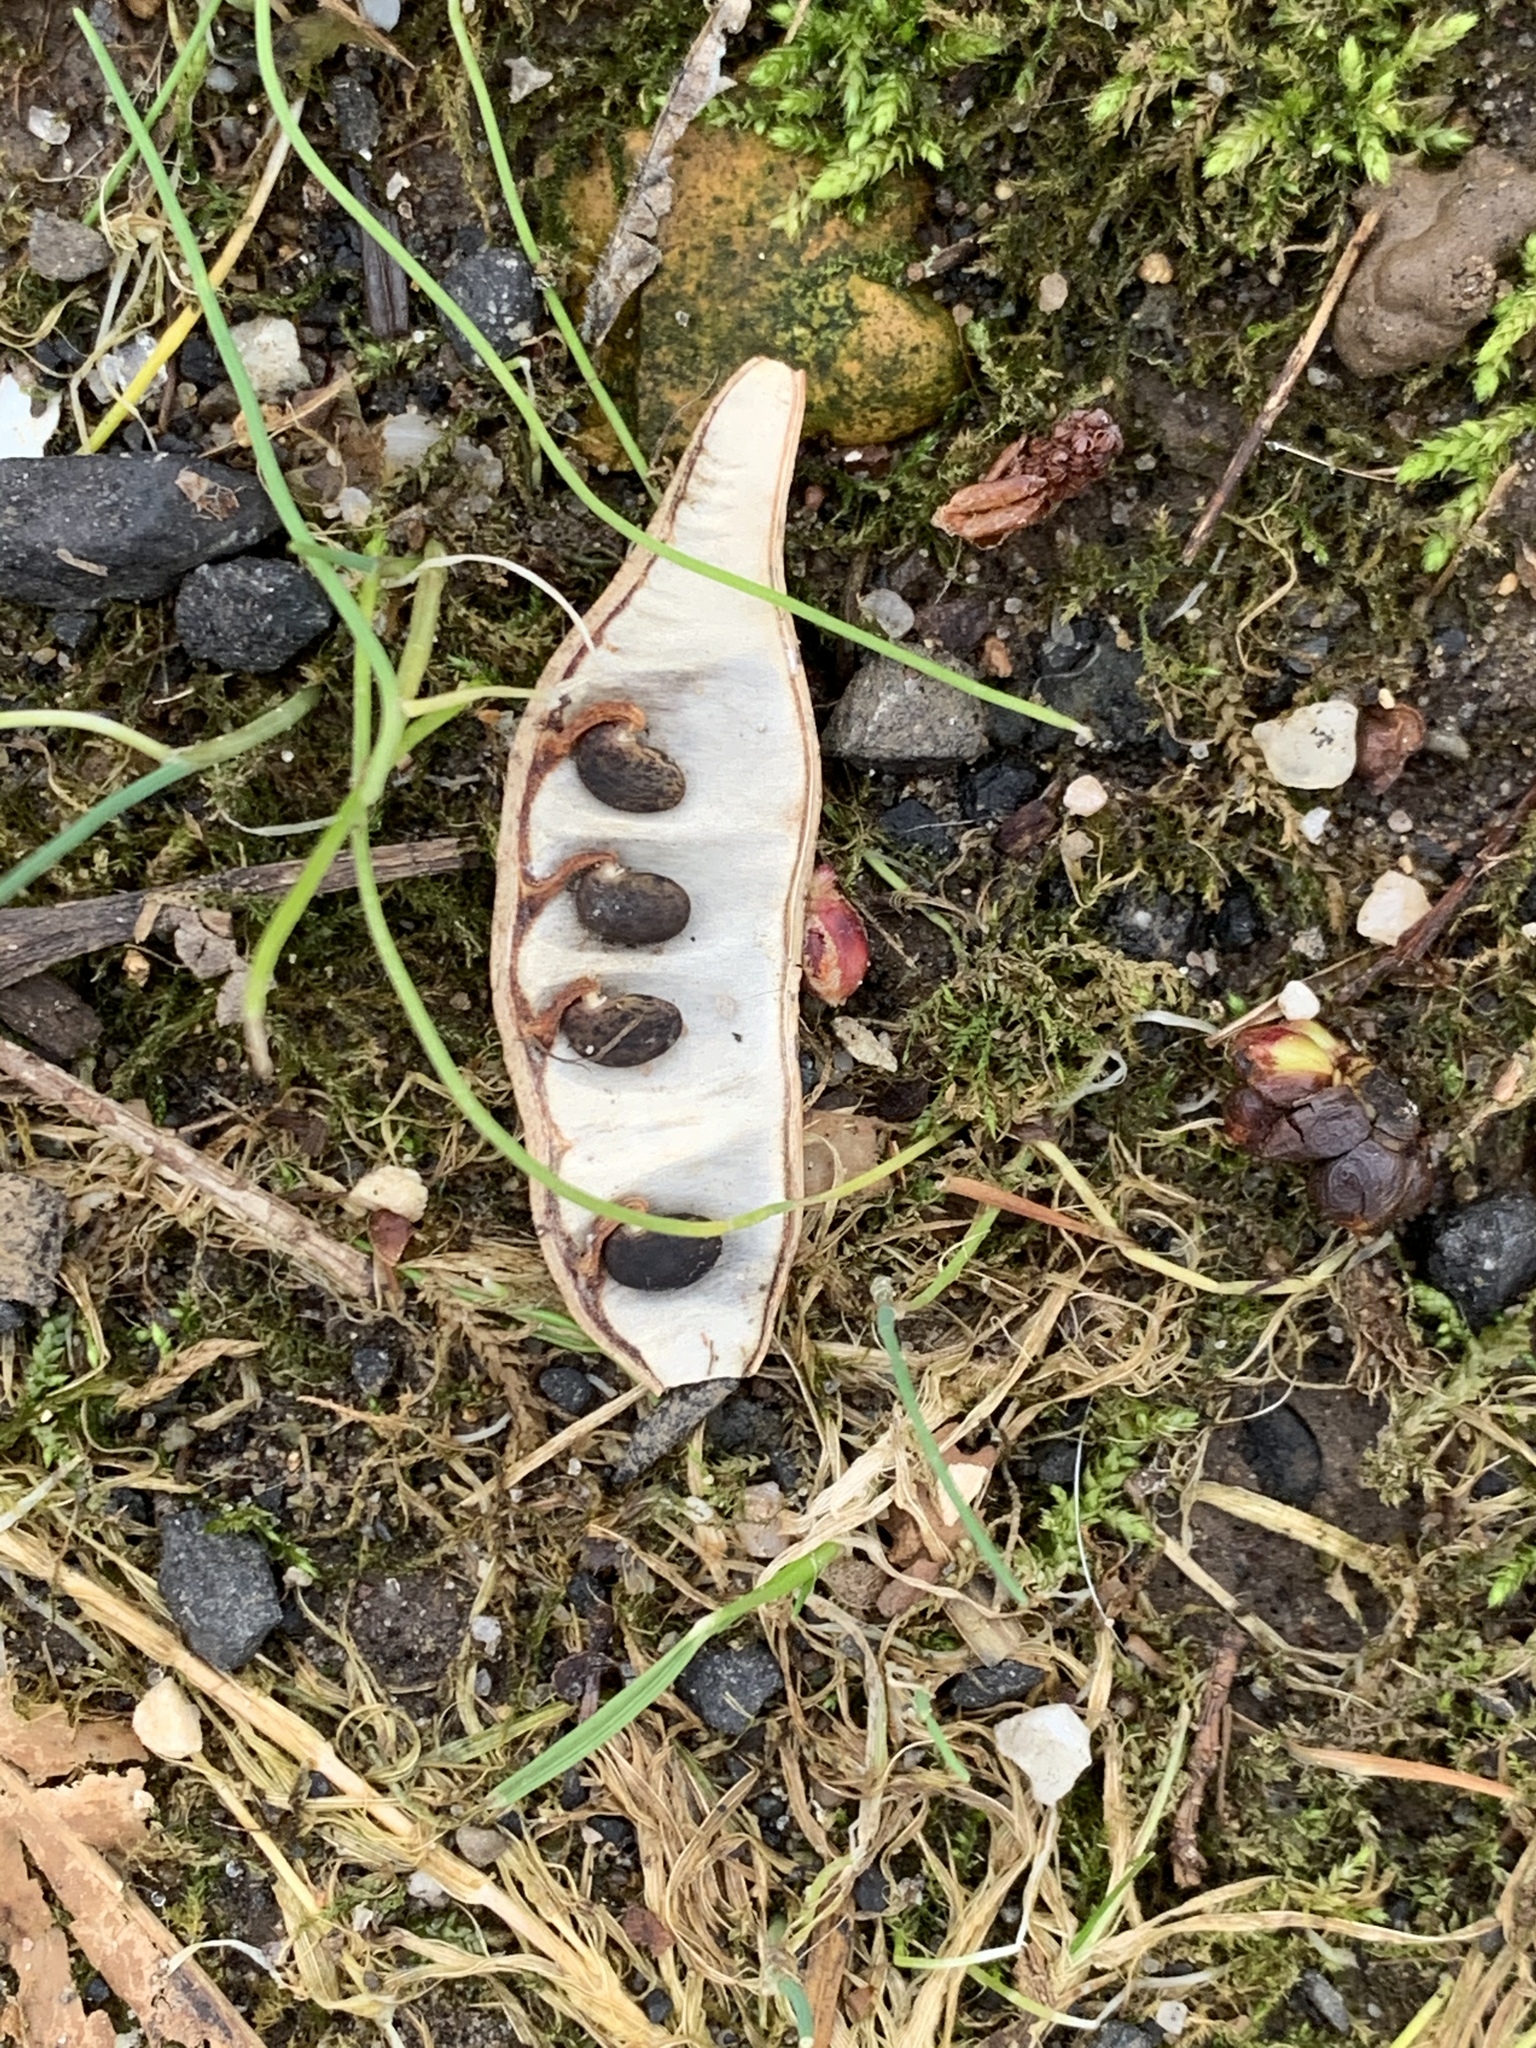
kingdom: Plantae
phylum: Tracheophyta
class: Magnoliopsida
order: Fabales
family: Fabaceae
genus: Robinia
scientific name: Robinia pseudoacacia
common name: Black locust
